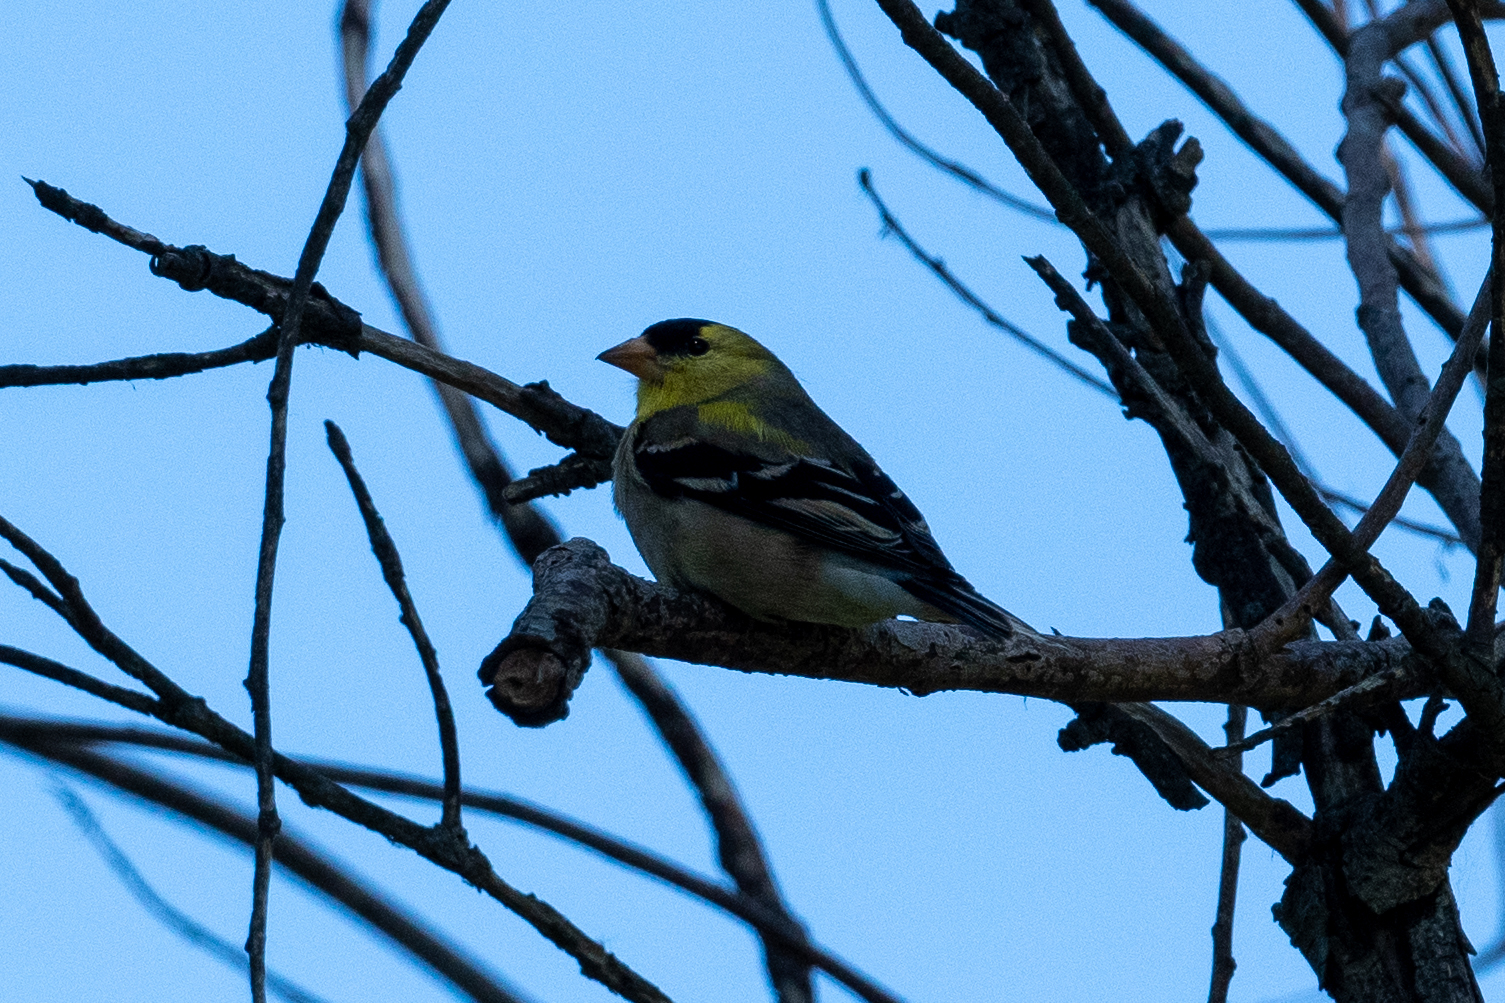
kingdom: Animalia
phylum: Chordata
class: Aves
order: Passeriformes
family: Fringillidae
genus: Spinus
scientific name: Spinus tristis
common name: American goldfinch
